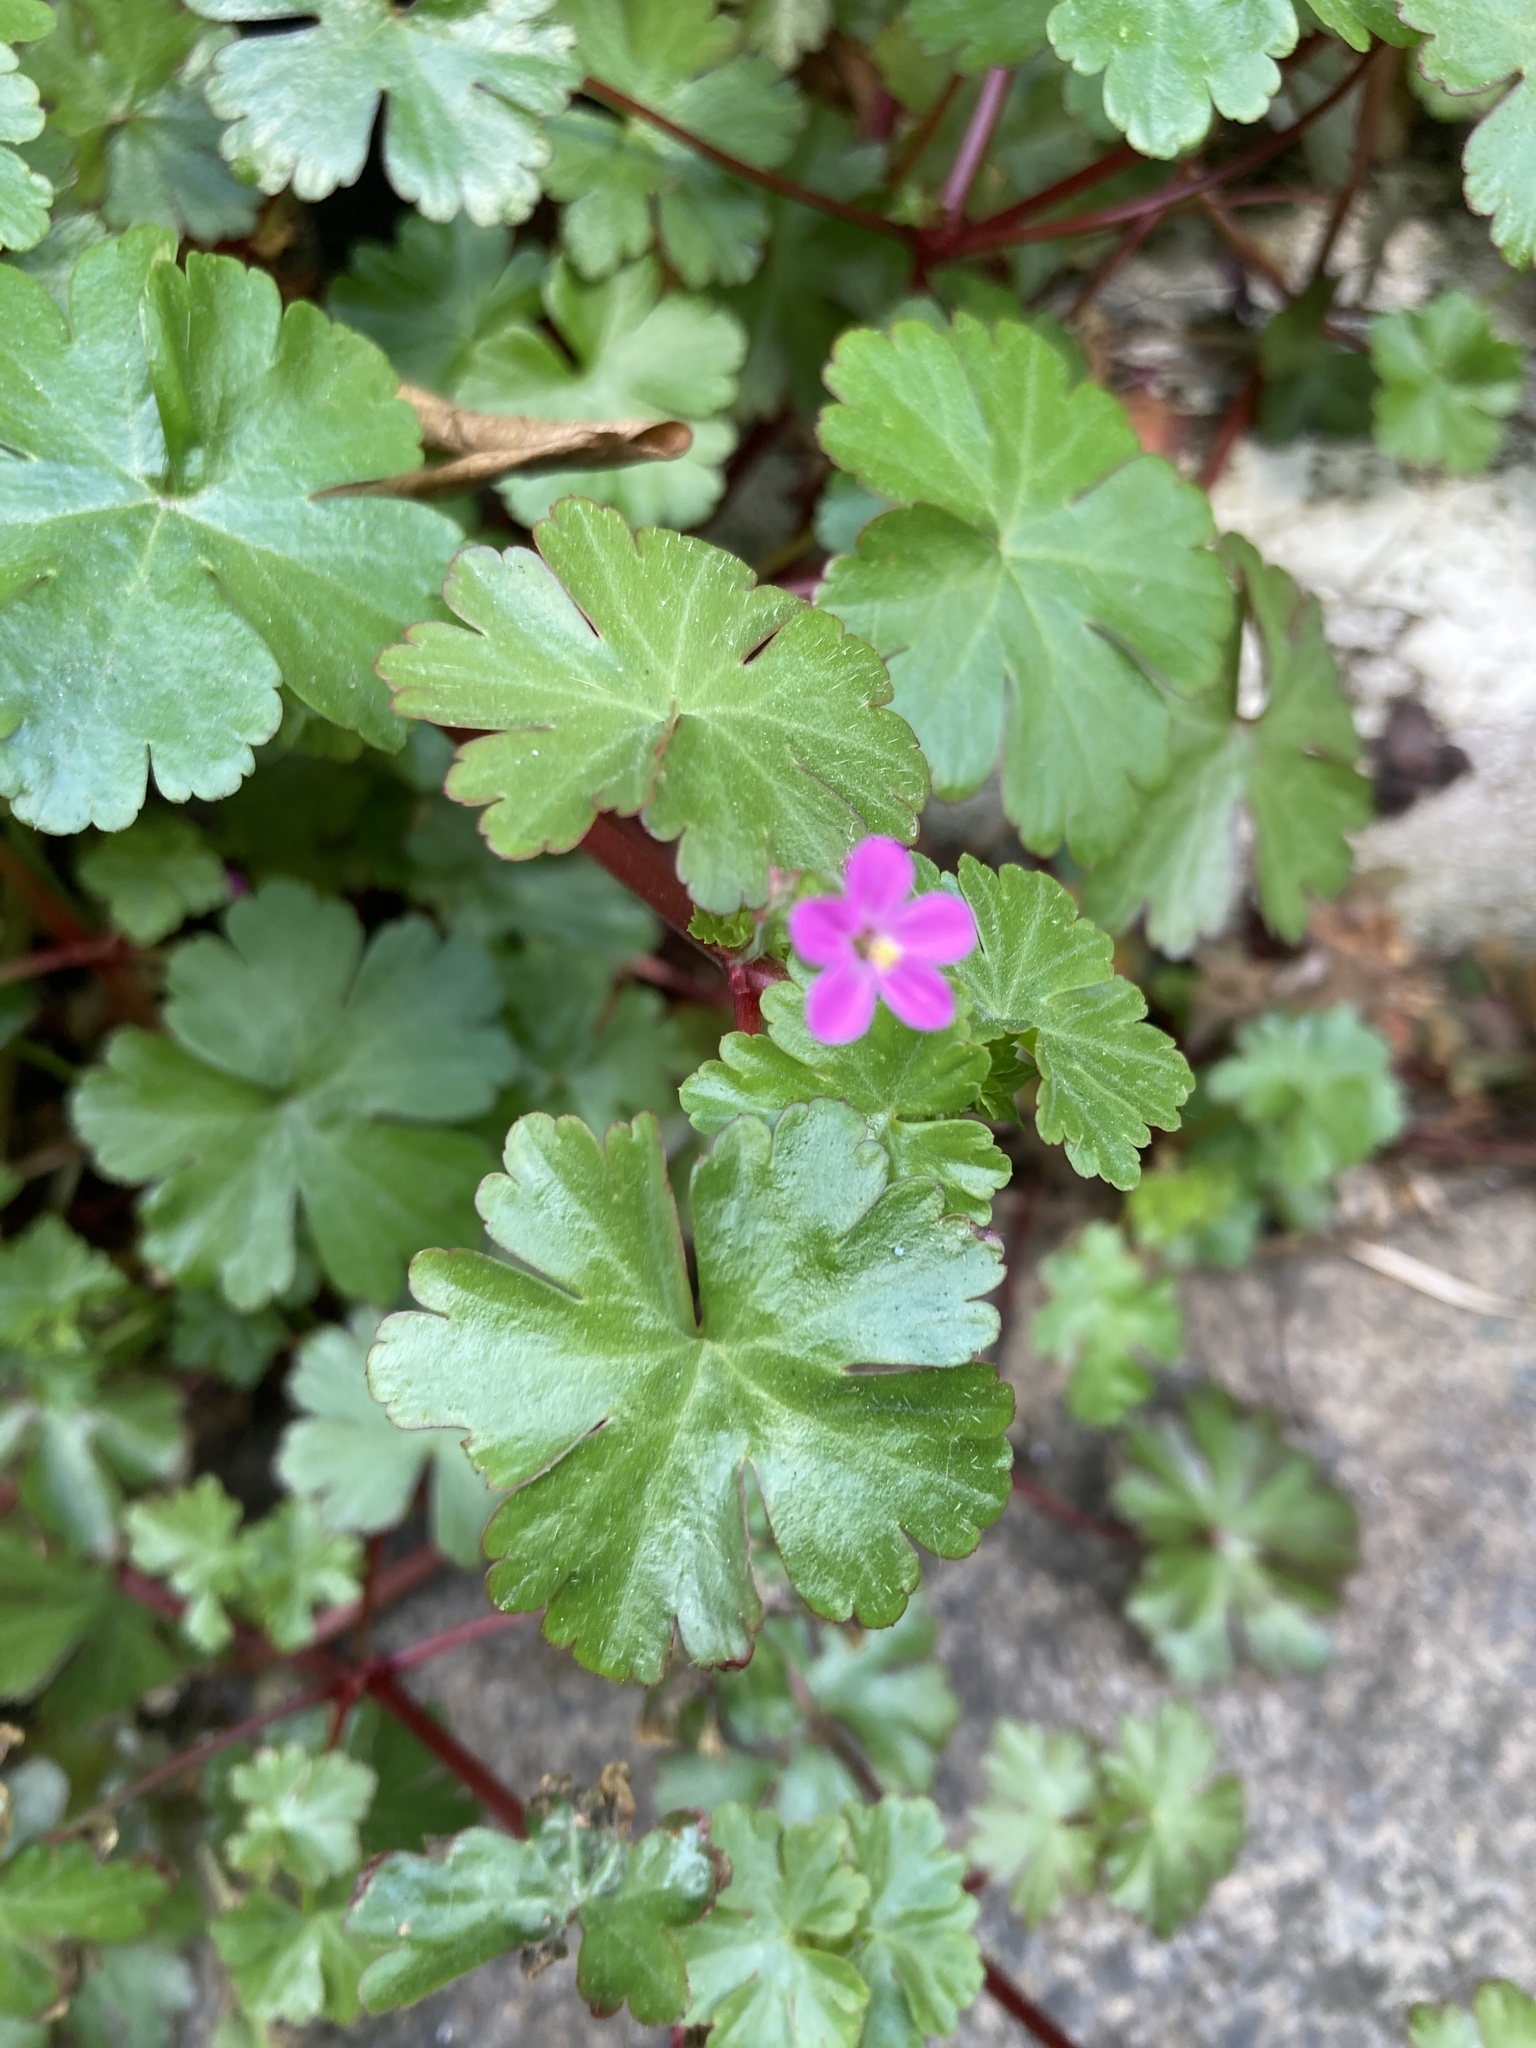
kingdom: Plantae
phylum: Tracheophyta
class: Magnoliopsida
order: Geraniales
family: Geraniaceae
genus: Geranium
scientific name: Geranium lucidum
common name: Shining crane's-bill
